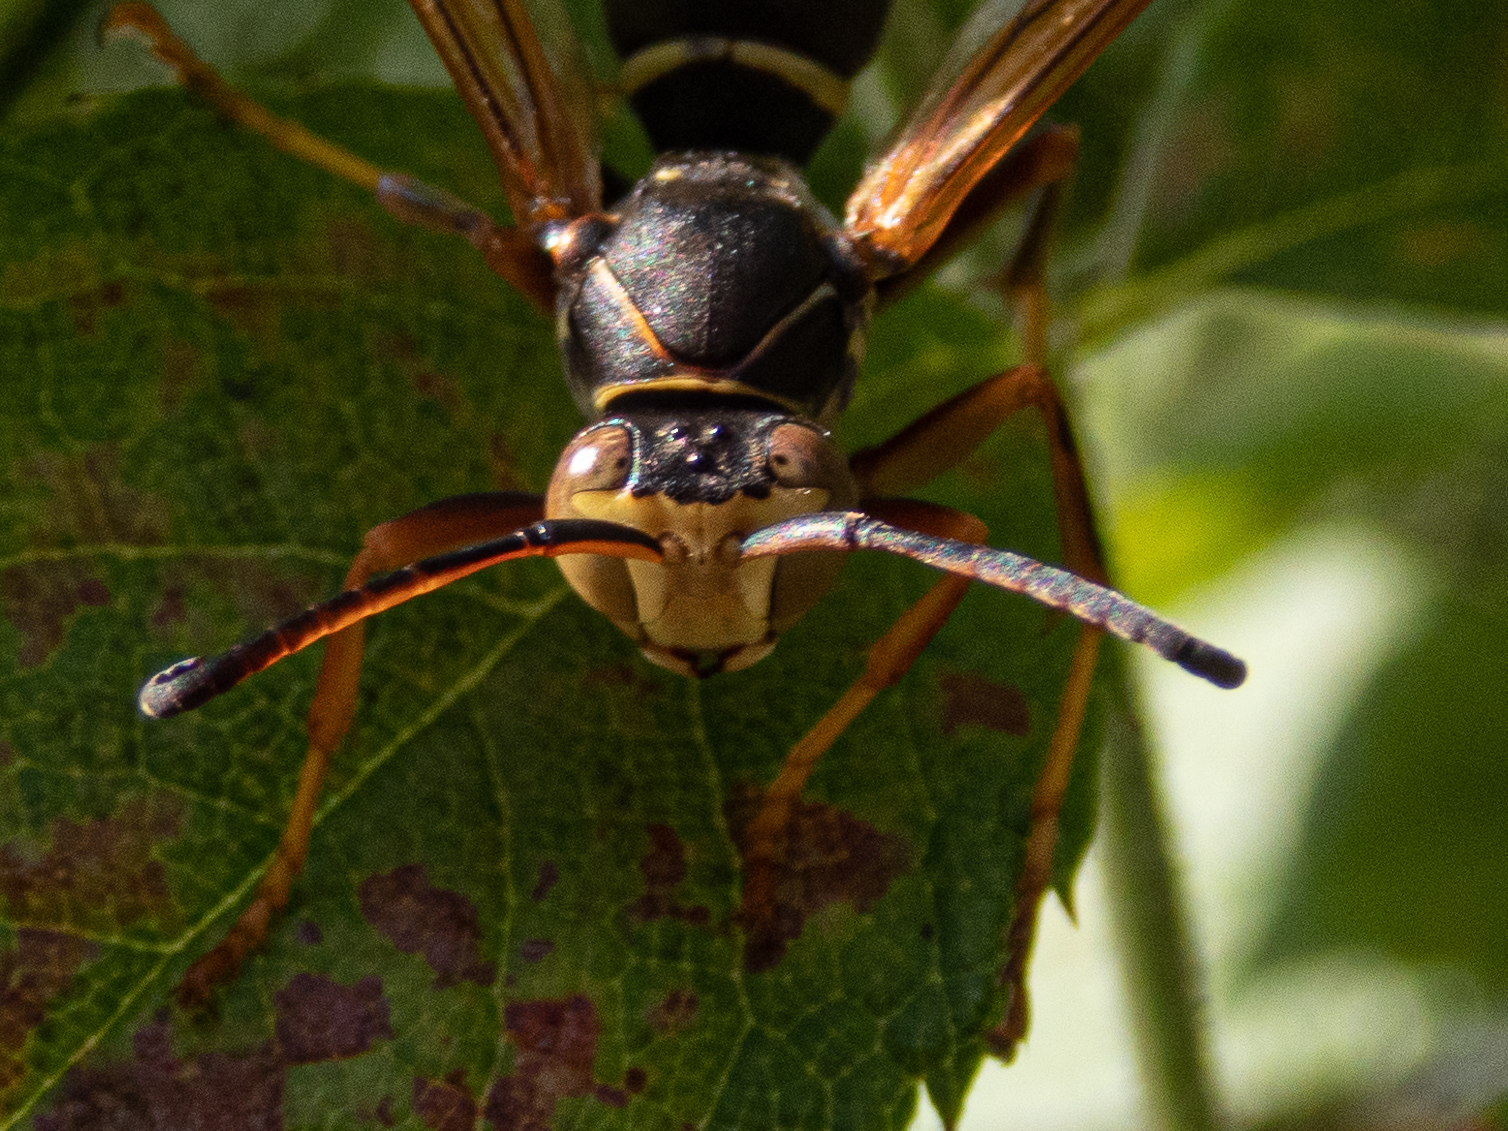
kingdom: Animalia
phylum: Arthropoda
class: Insecta
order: Hymenoptera
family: Eumenidae
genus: Polistes
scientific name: Polistes fuscatus
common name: Dark paper wasp
